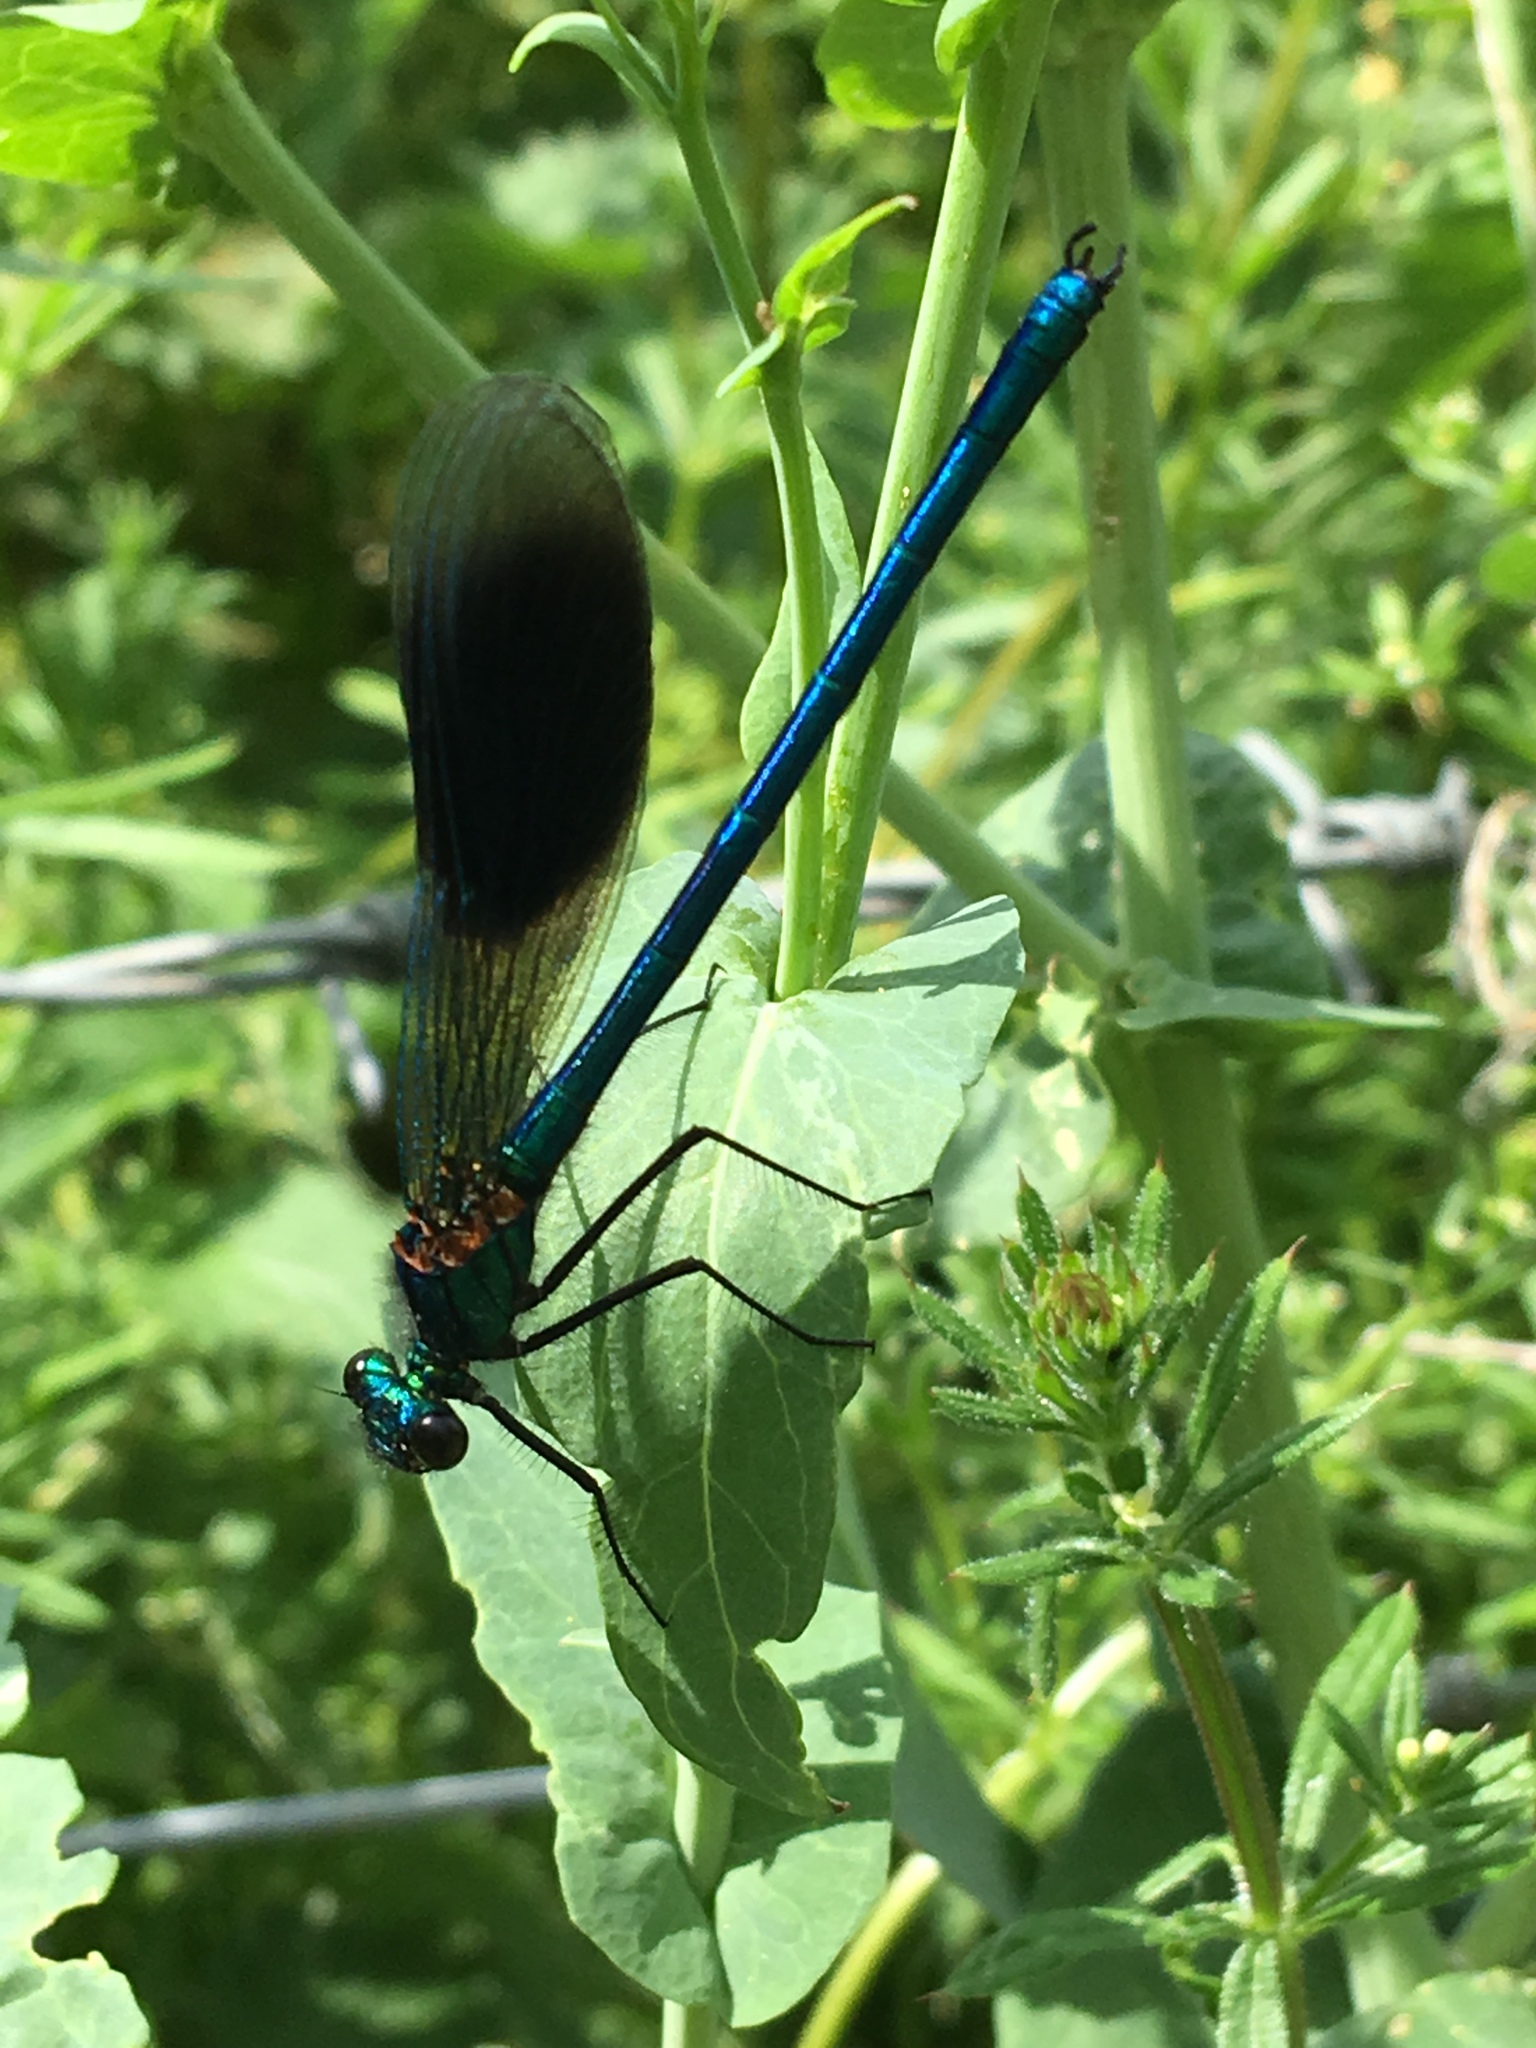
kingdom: Animalia
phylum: Arthropoda
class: Insecta
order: Odonata
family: Calopterygidae
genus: Calopteryx
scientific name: Calopteryx splendens
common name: Banded demoiselle
